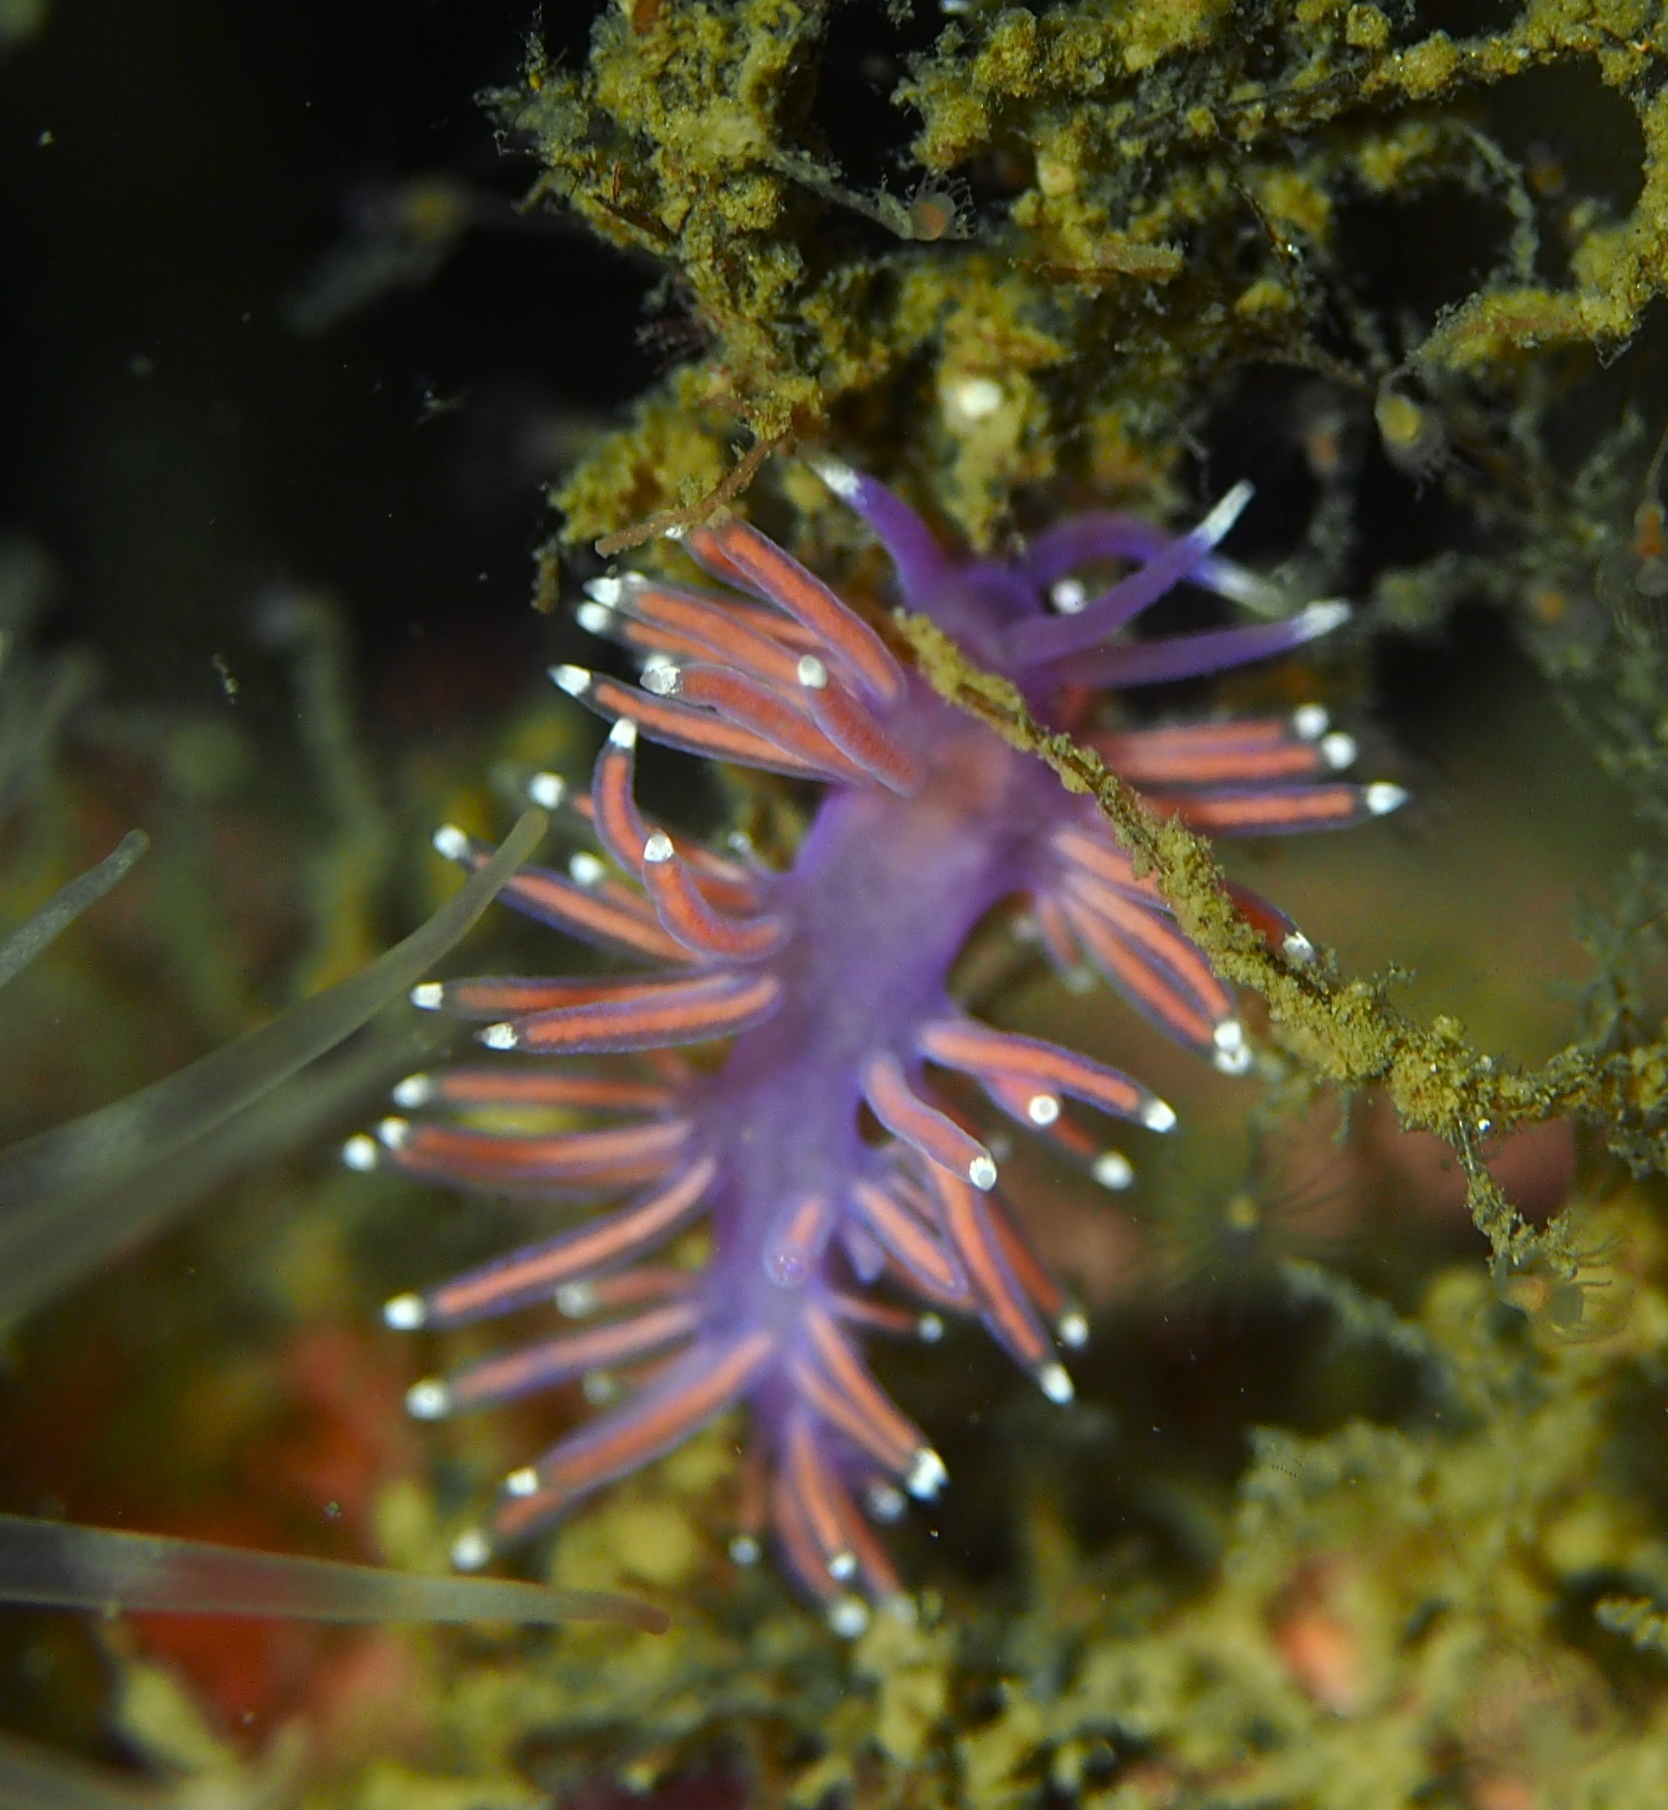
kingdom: Animalia
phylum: Mollusca
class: Gastropoda
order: Nudibranchia
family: Flabellinidae
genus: Edmundsella
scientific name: Edmundsella pedata
